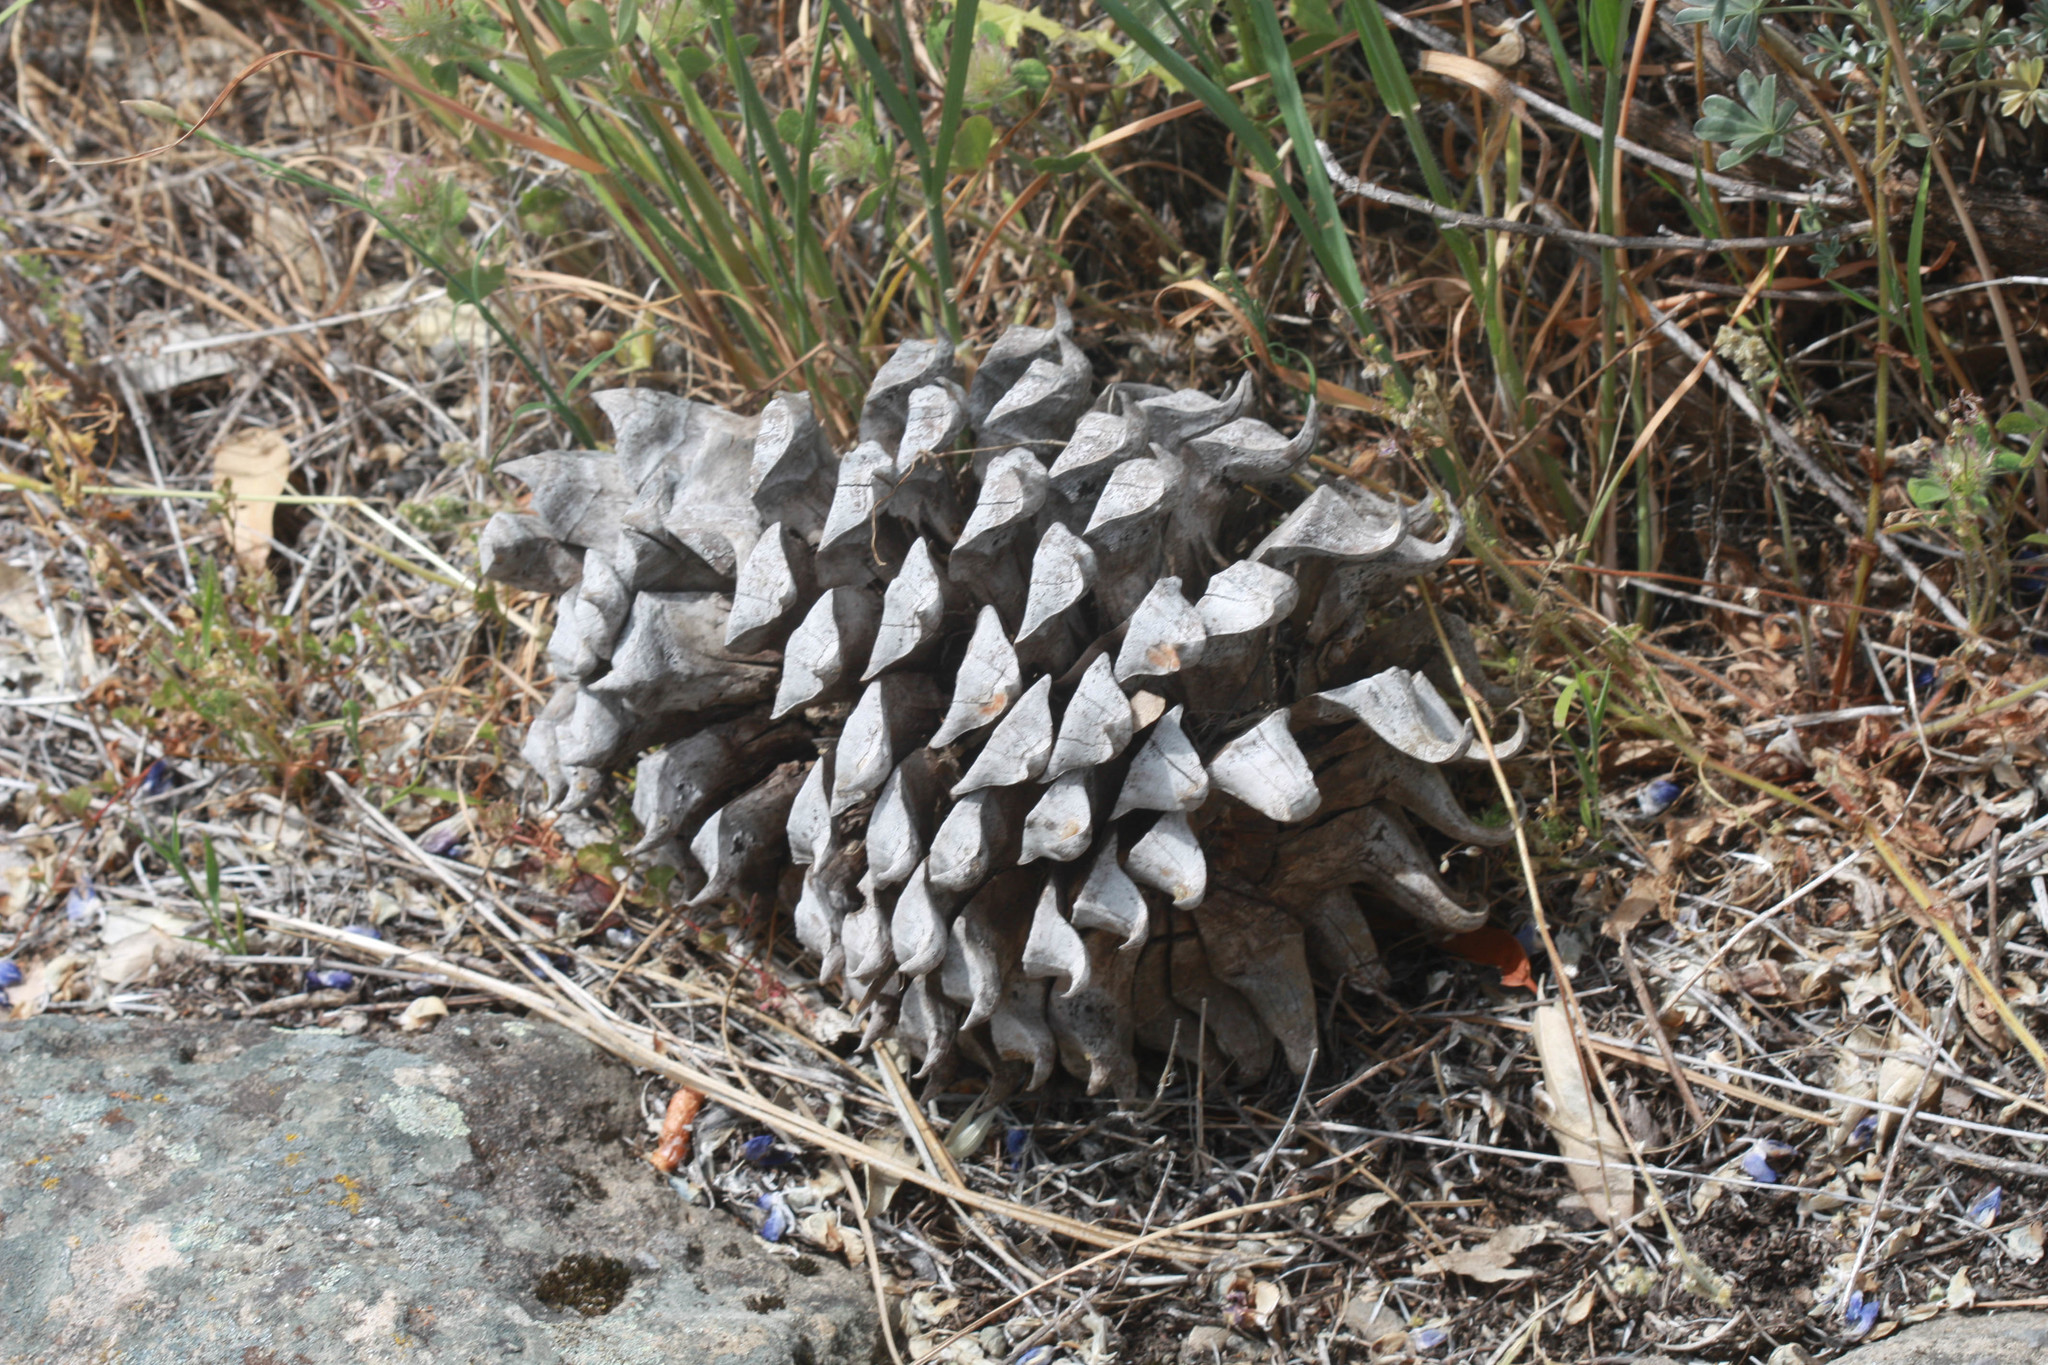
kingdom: Plantae
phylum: Tracheophyta
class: Pinopsida
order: Pinales
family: Pinaceae
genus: Pinus
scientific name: Pinus sabiniana
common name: Bull pine
